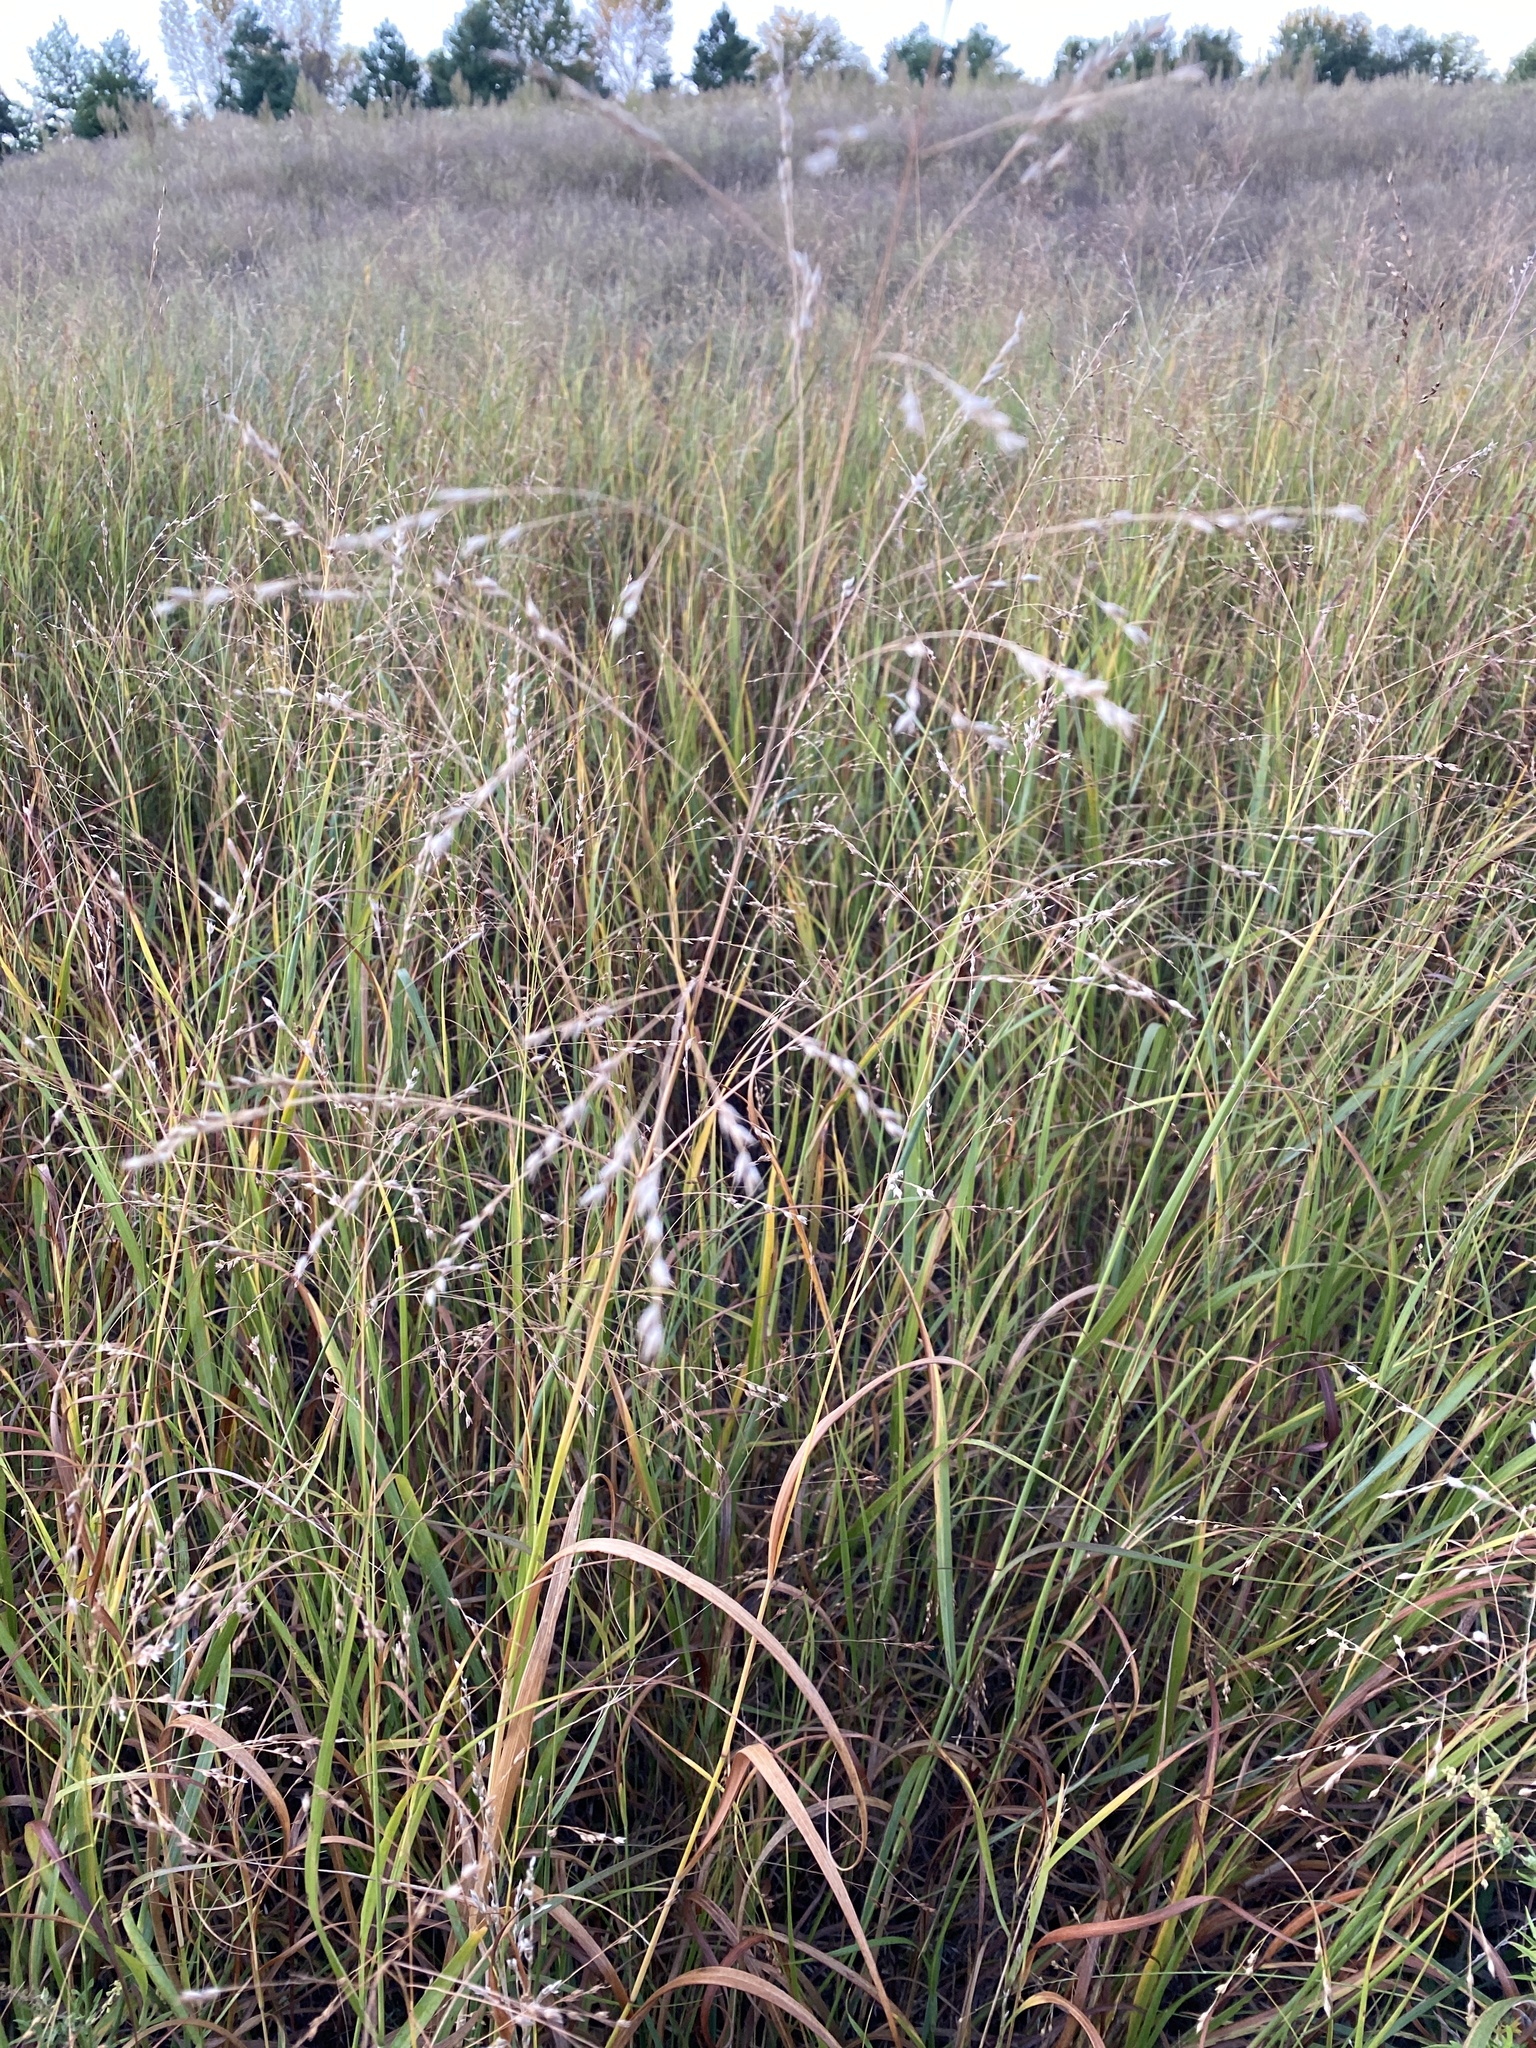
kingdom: Plantae
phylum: Tracheophyta
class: Liliopsida
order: Poales
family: Poaceae
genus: Panicum
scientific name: Panicum virgatum
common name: Switchgrass
